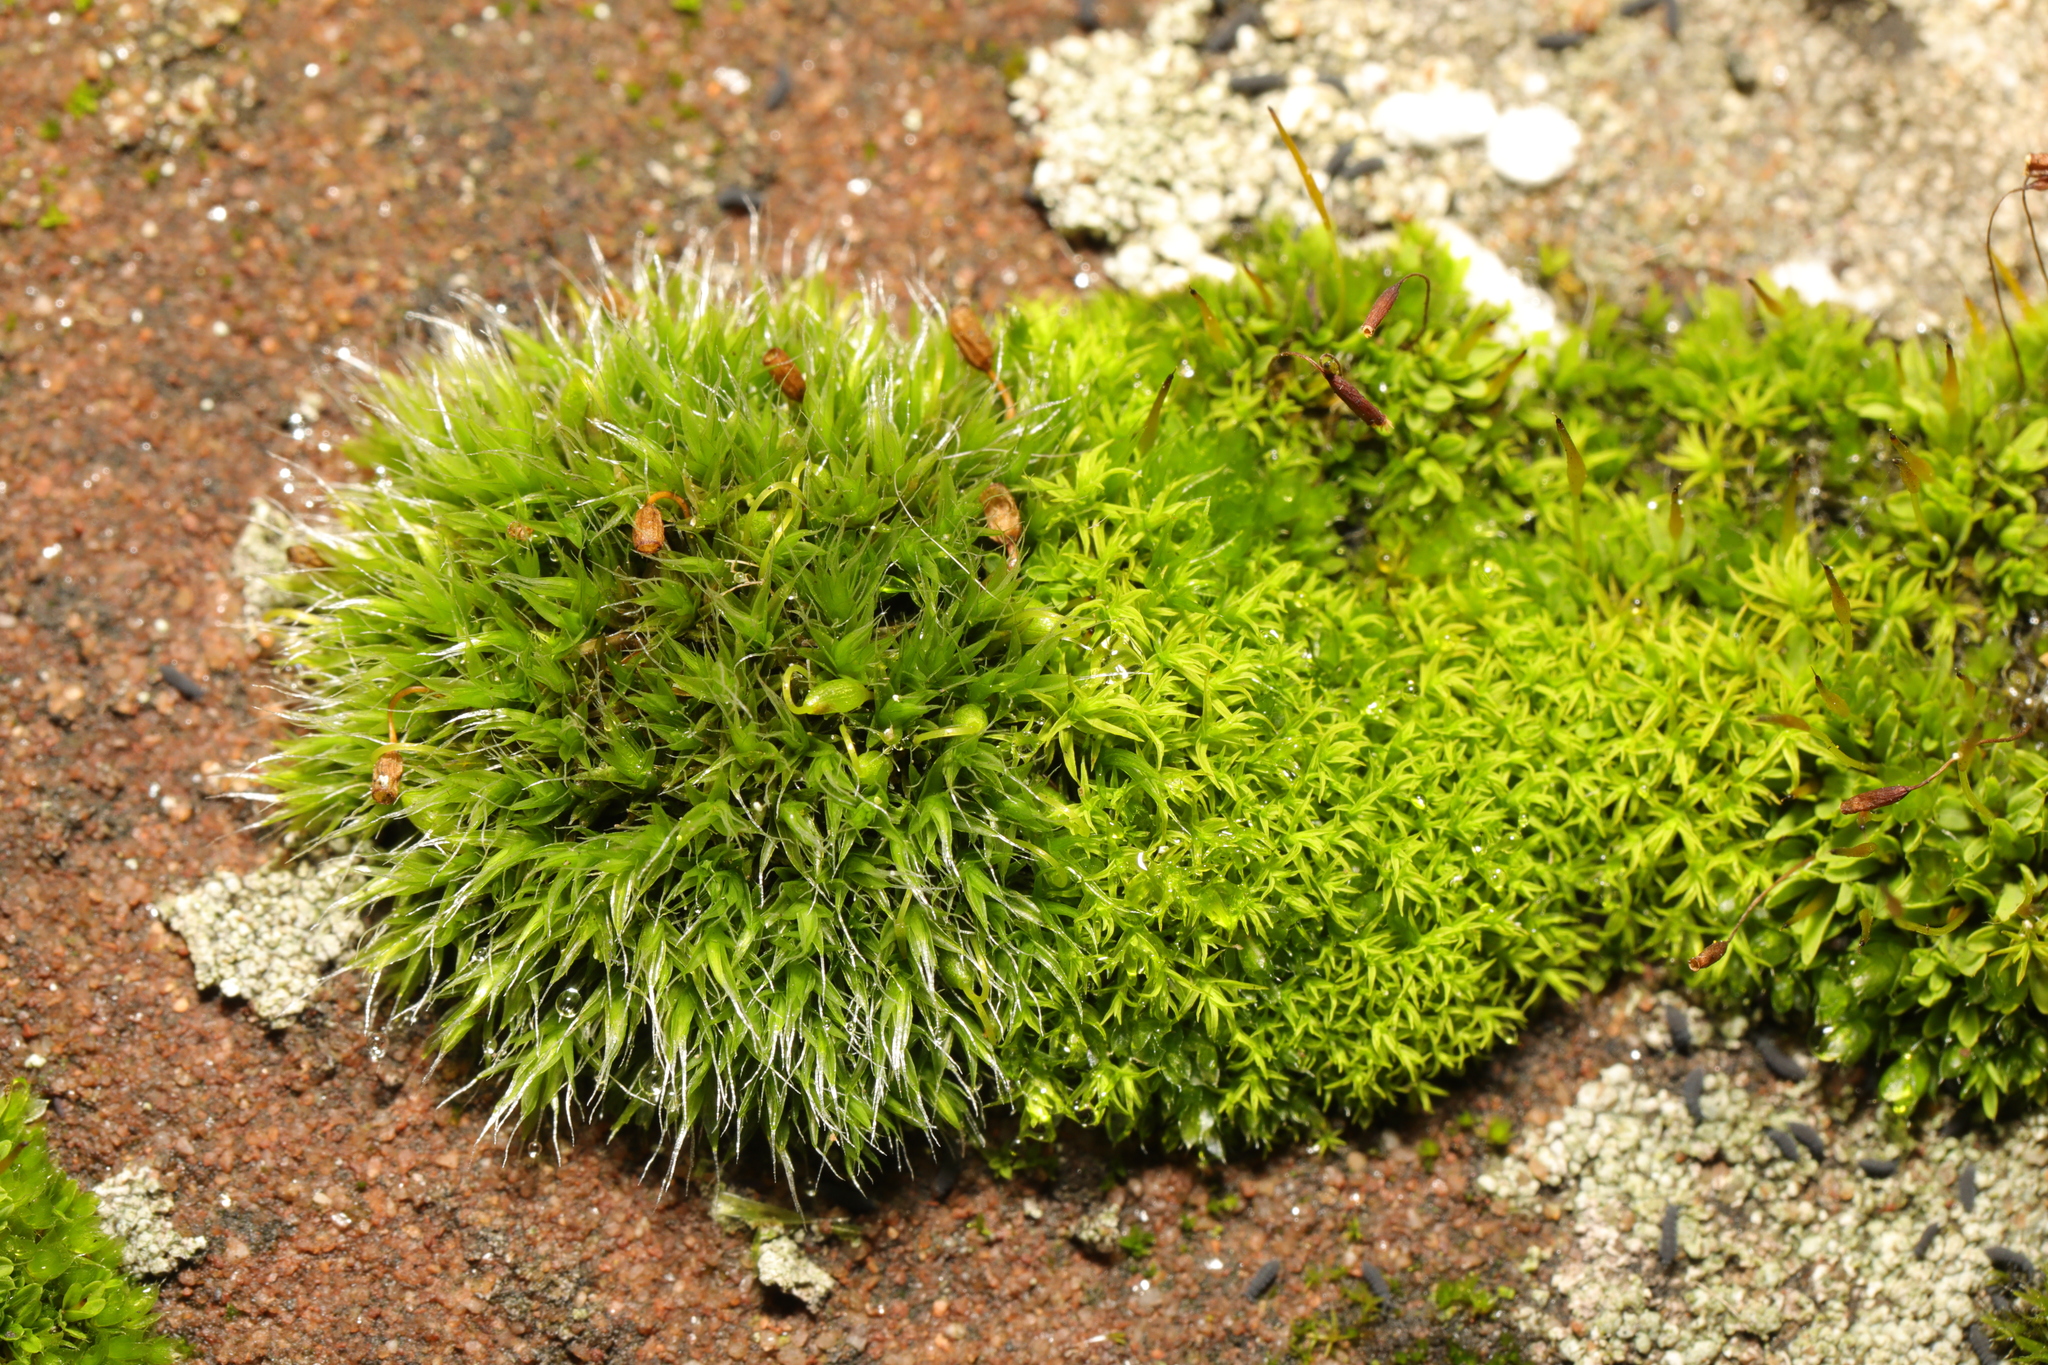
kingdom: Plantae
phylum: Bryophyta
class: Bryopsida
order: Grimmiales
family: Grimmiaceae
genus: Grimmia
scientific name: Grimmia pulvinata
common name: Grey-cushioned grimmia
